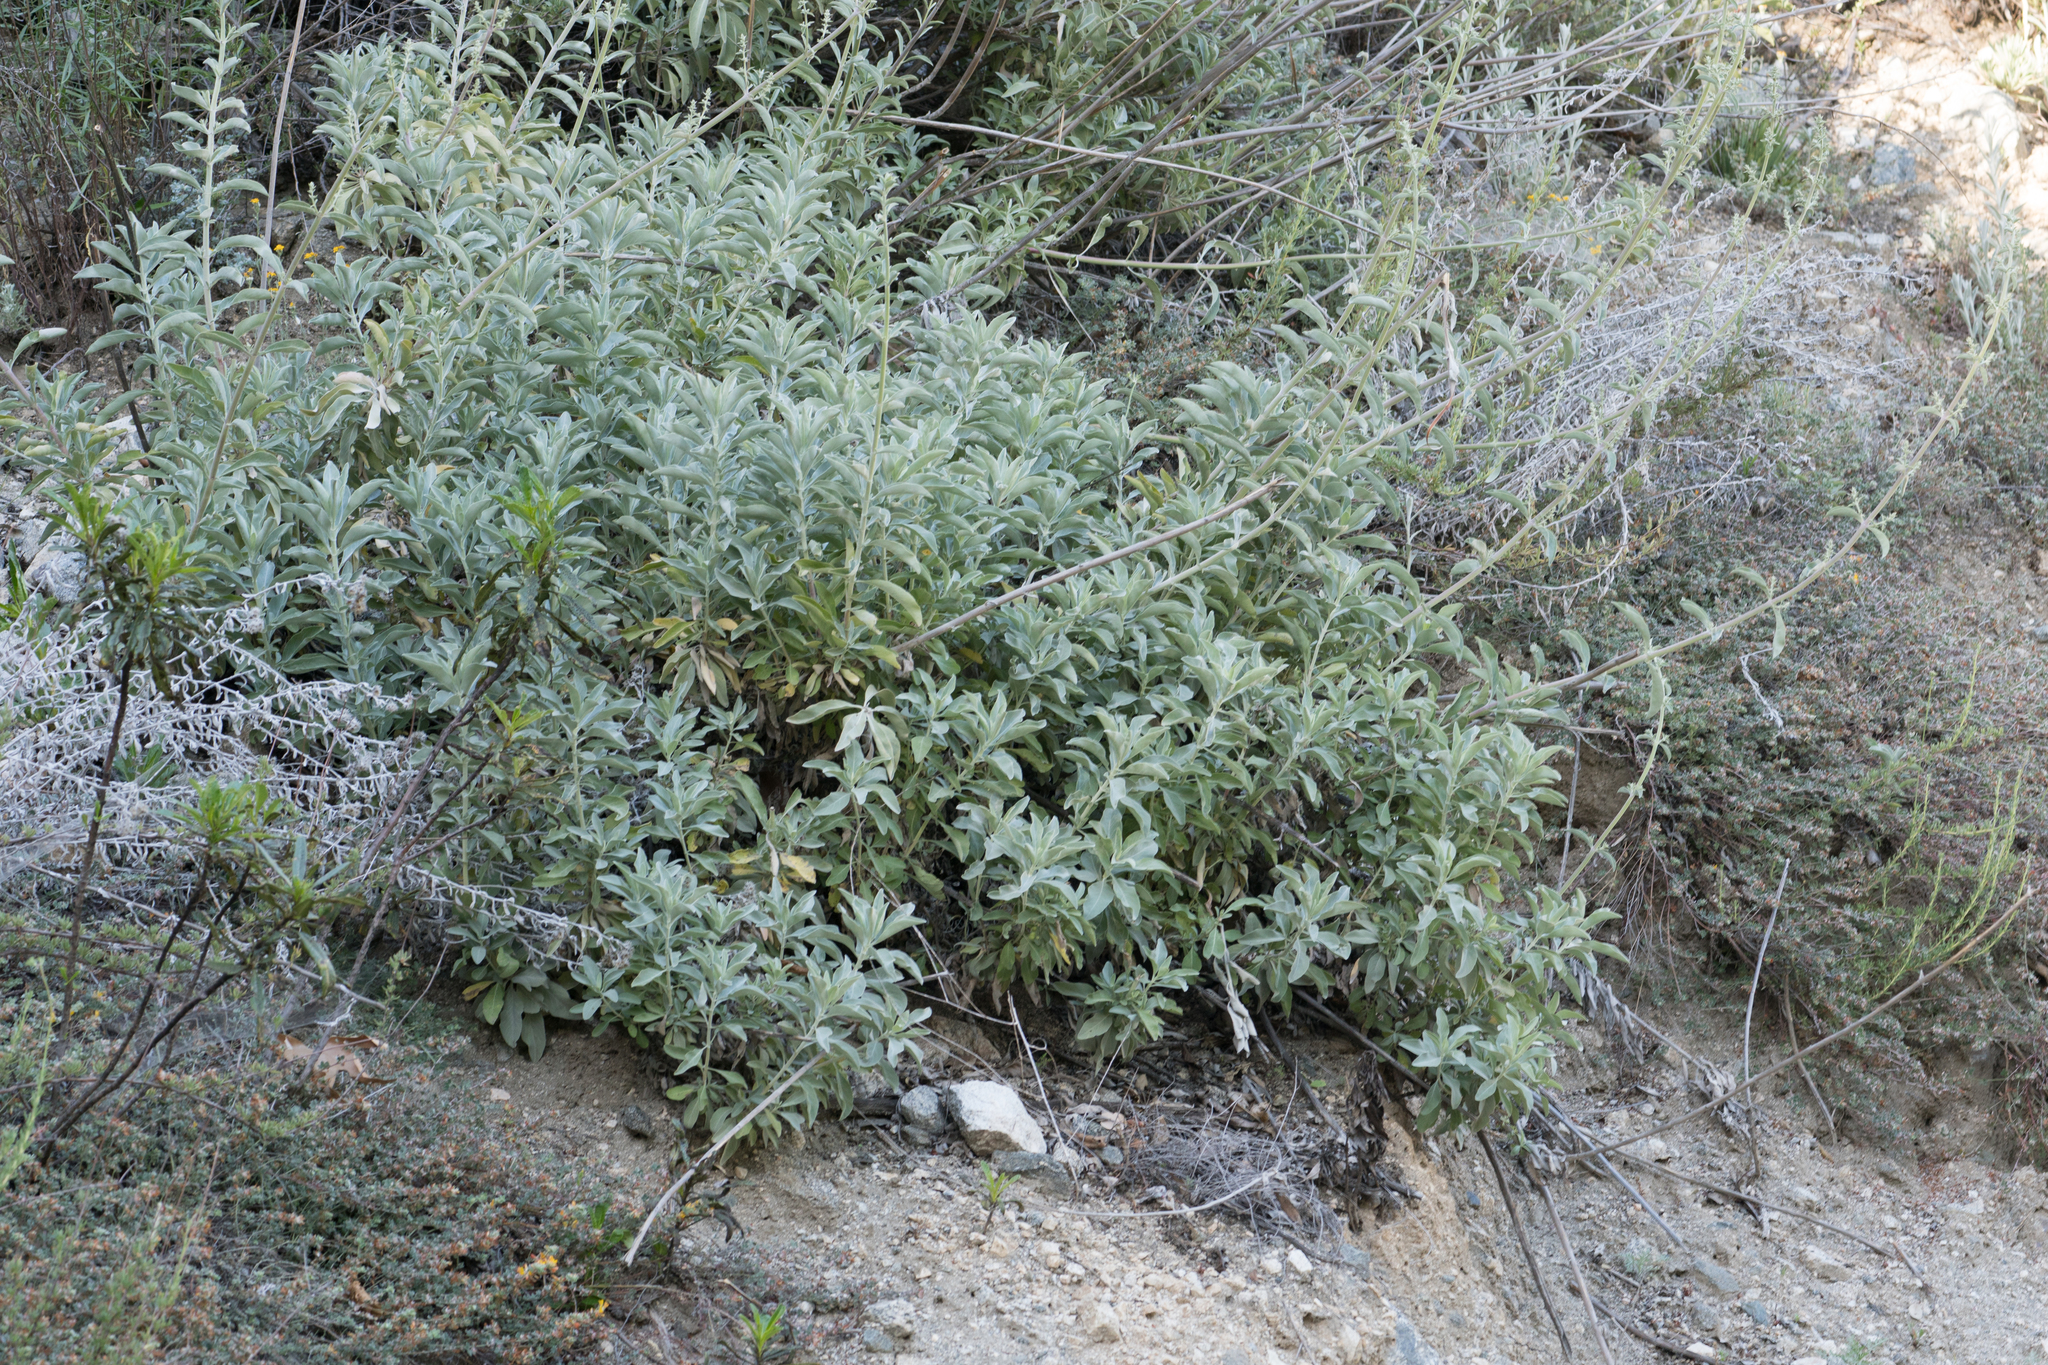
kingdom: Plantae
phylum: Tracheophyta
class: Magnoliopsida
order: Lamiales
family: Lamiaceae
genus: Salvia
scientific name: Salvia apiana
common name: White sage
